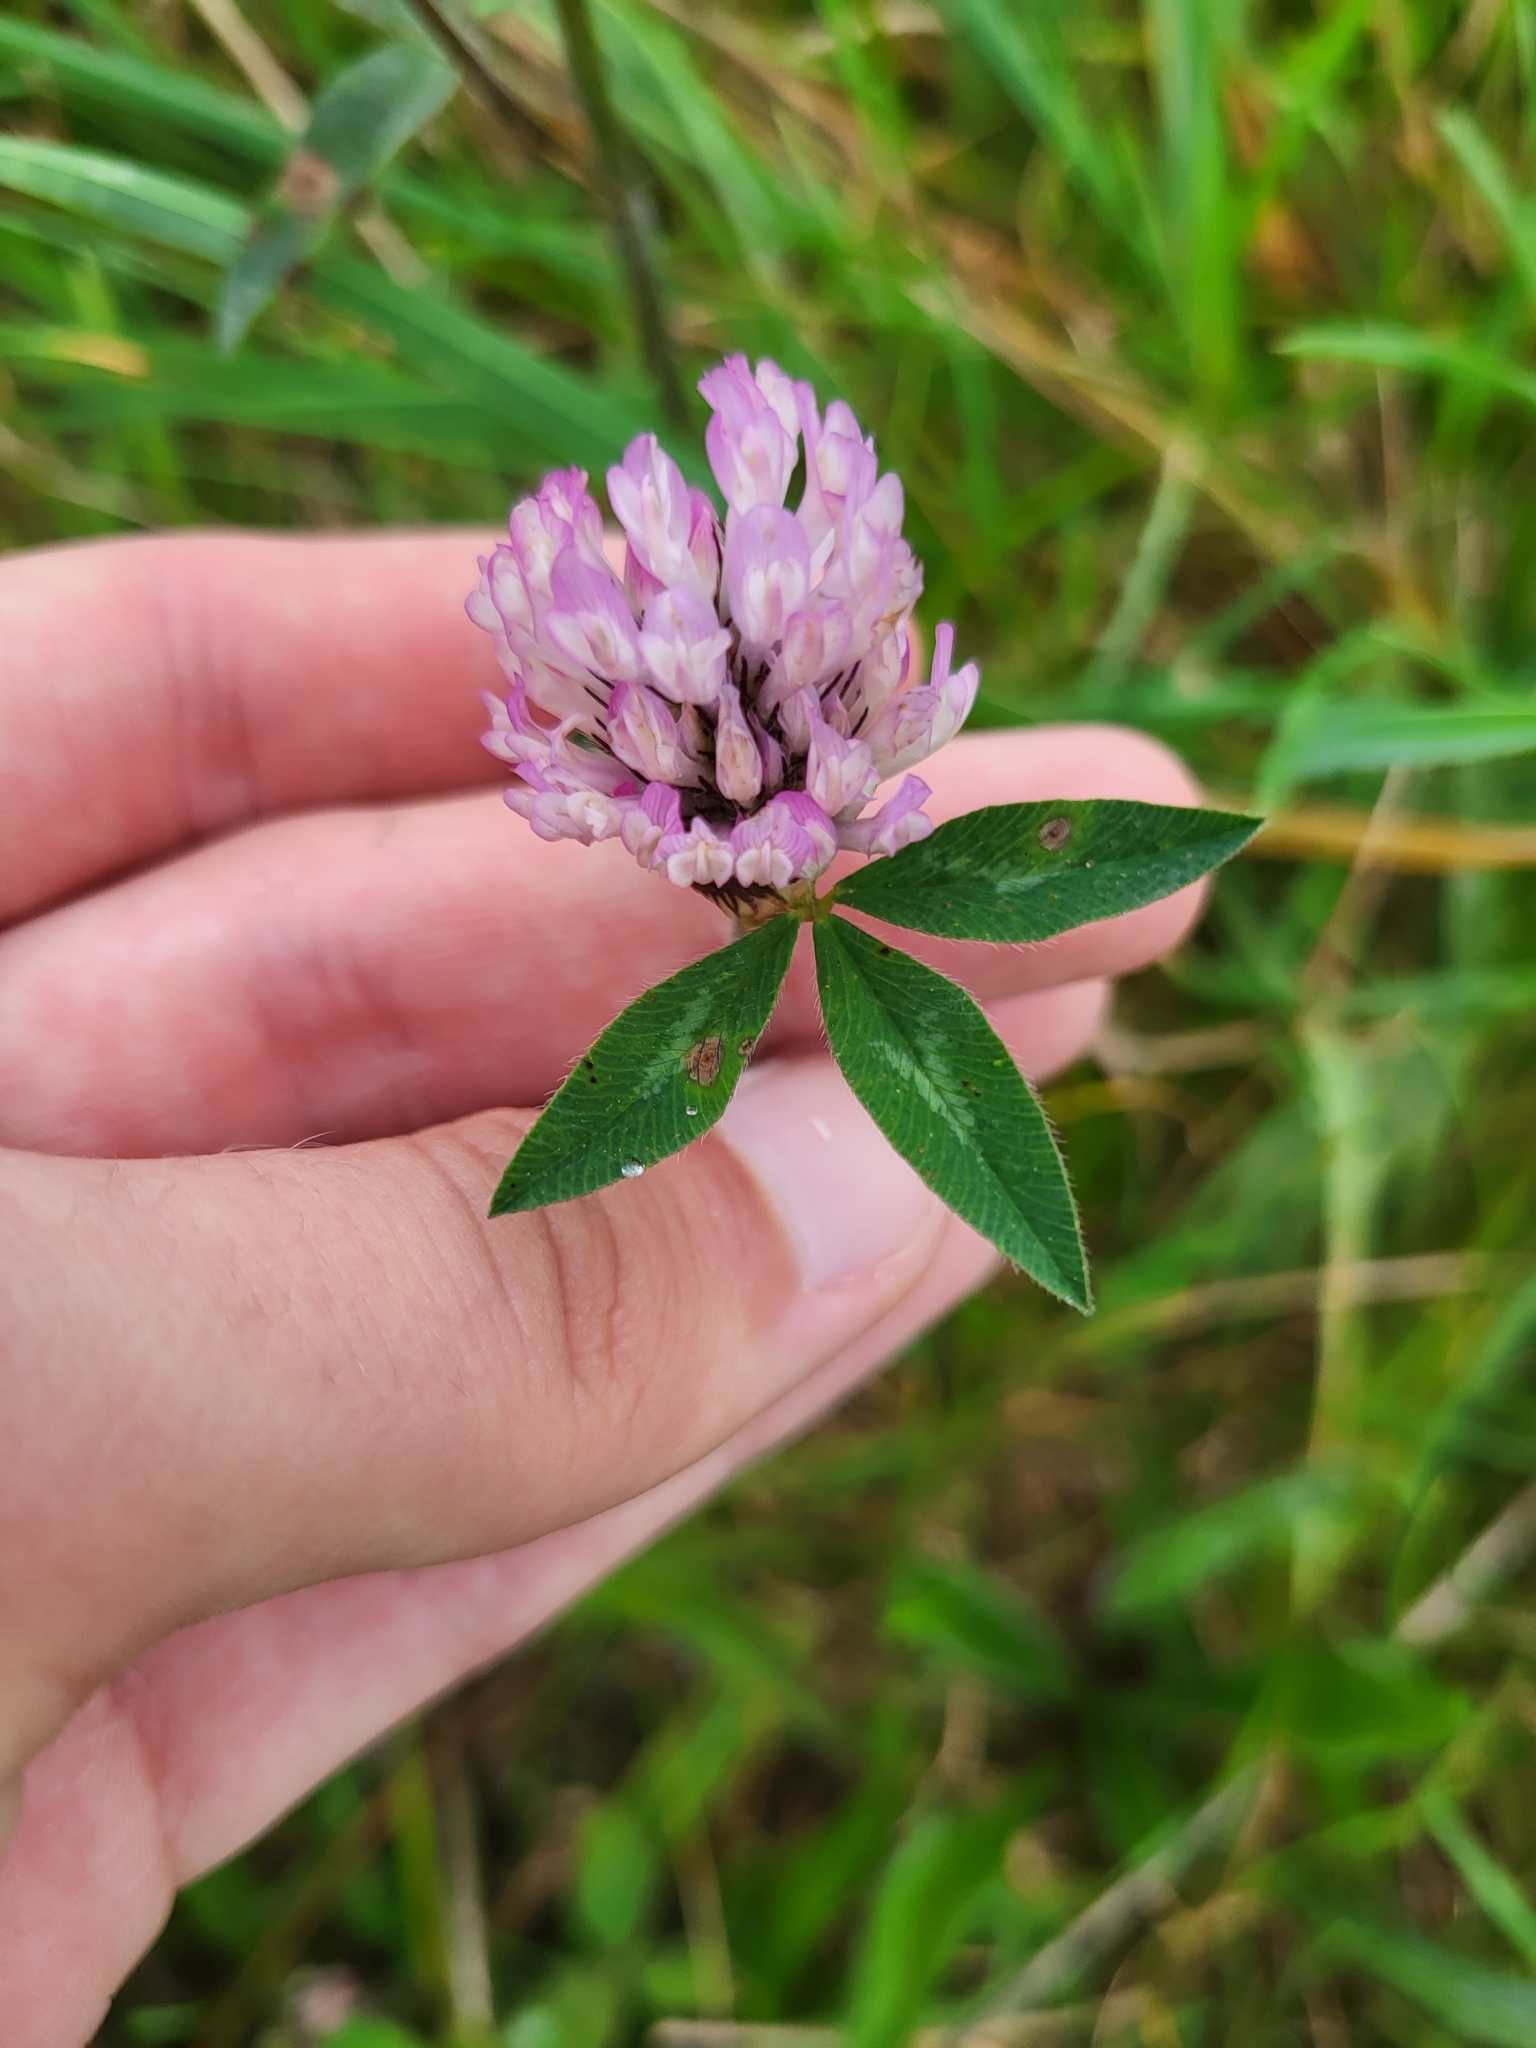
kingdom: Plantae
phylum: Tracheophyta
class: Magnoliopsida
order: Fabales
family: Fabaceae
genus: Trifolium
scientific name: Trifolium pratense
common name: Red clover
